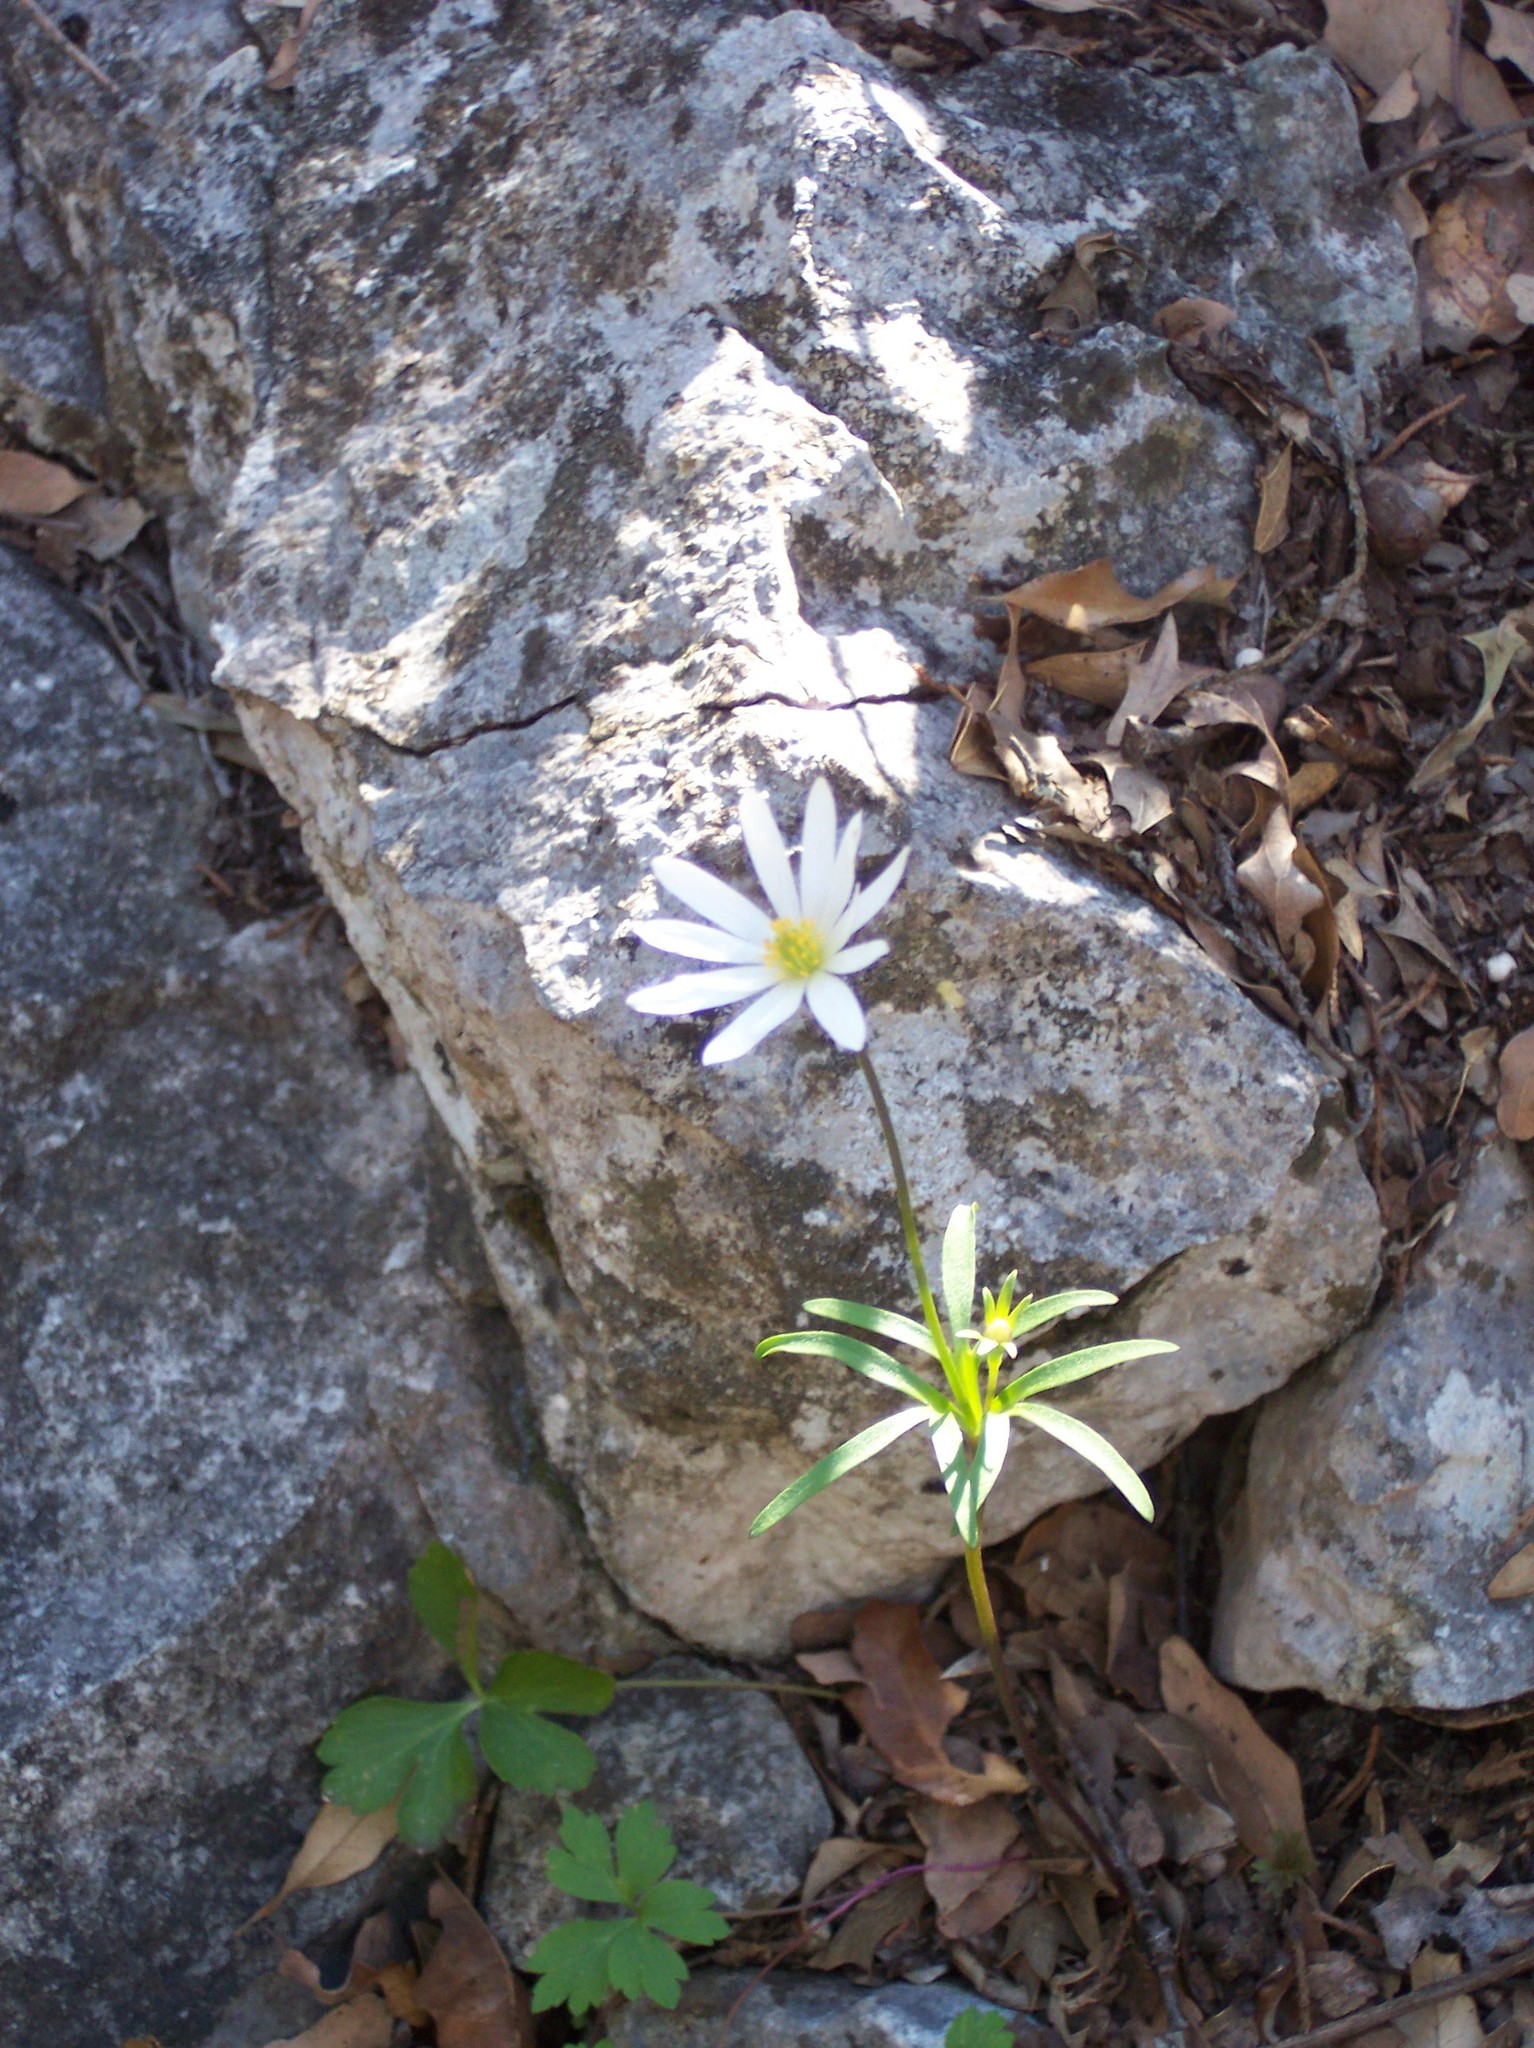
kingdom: Plantae
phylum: Tracheophyta
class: Magnoliopsida
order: Ranunculales
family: Ranunculaceae
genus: Anemone
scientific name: Anemone edwardsiana
